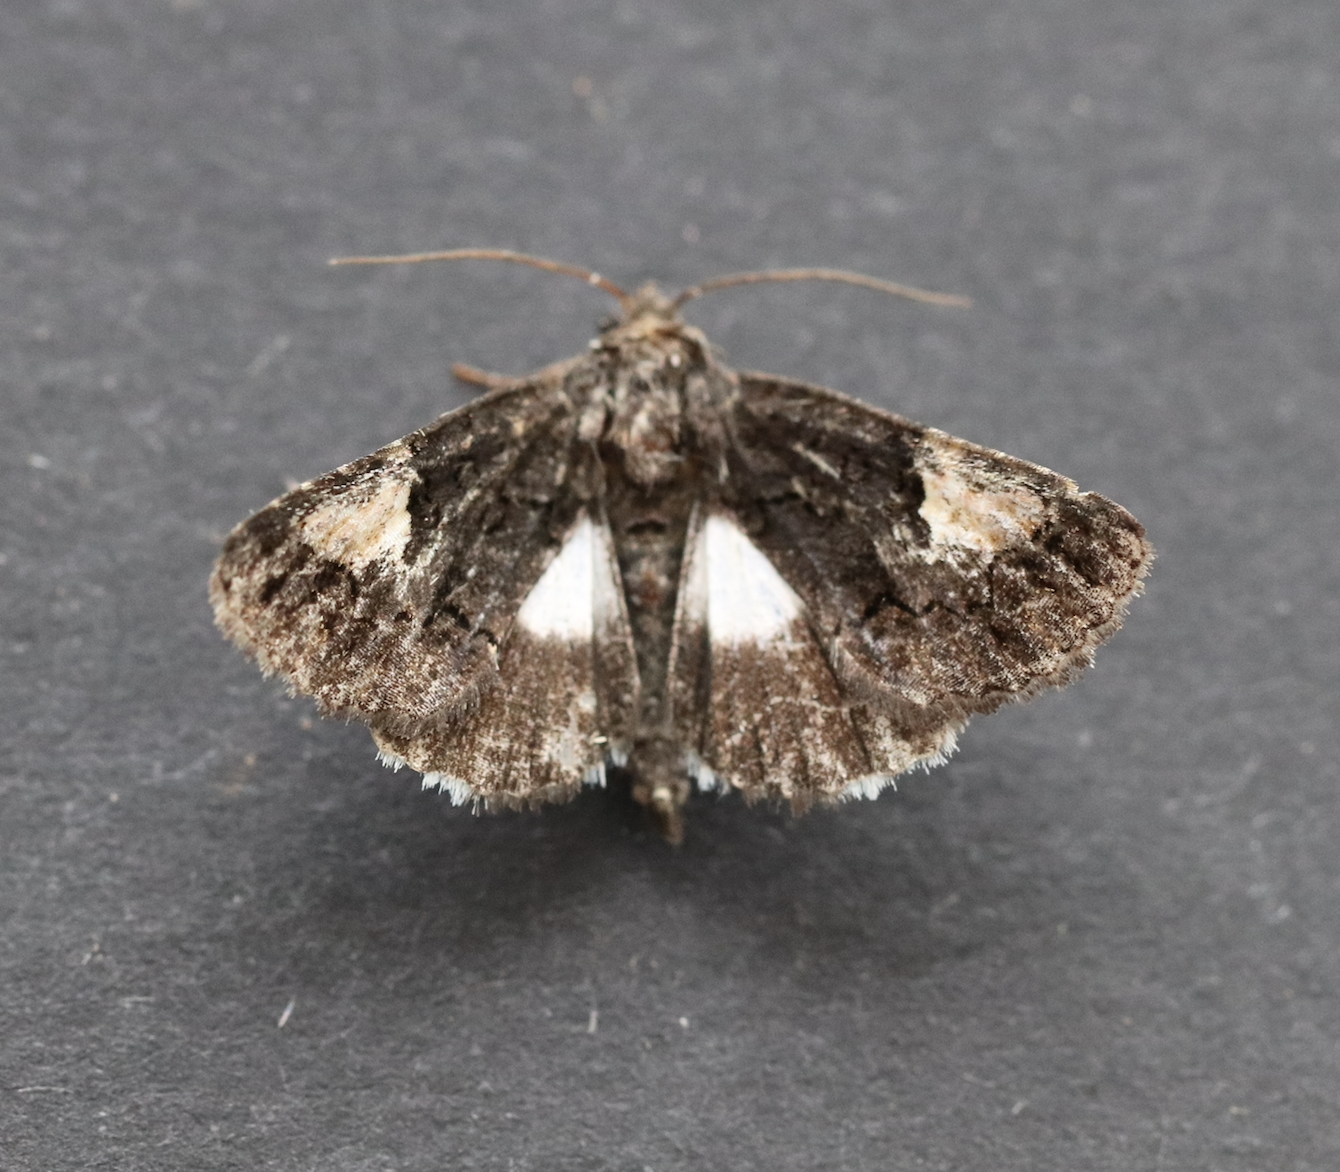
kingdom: Animalia
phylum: Arthropoda
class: Insecta
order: Lepidoptera
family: Noctuidae
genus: Aedia
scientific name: Aedia funesta
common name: The druid
